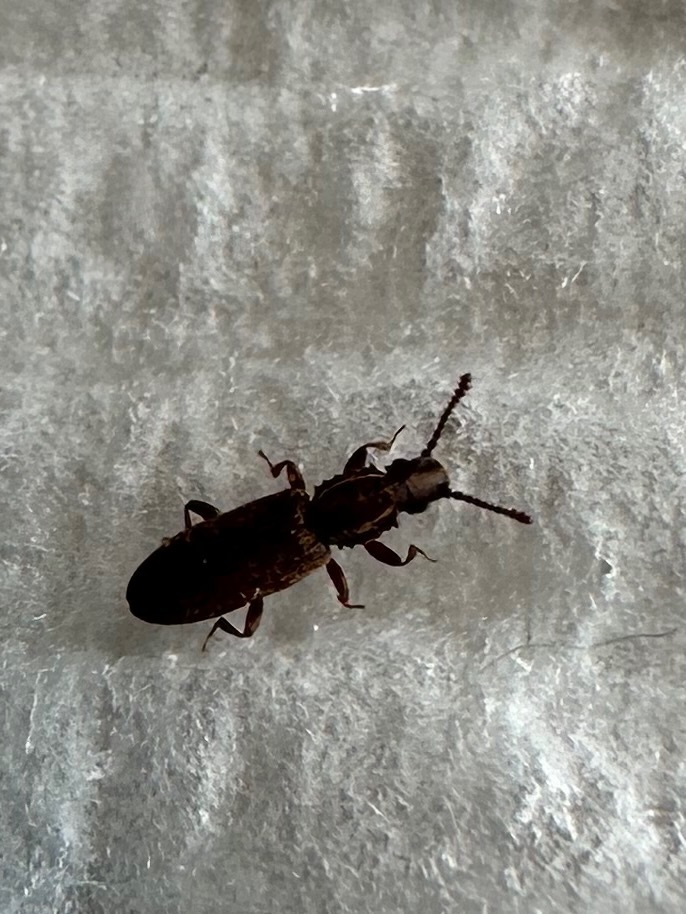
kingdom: Animalia
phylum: Arthropoda
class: Insecta
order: Coleoptera
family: Silvanidae
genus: Oryzaephilus
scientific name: Oryzaephilus surinamensis
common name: Sawtoothed grain beetle
